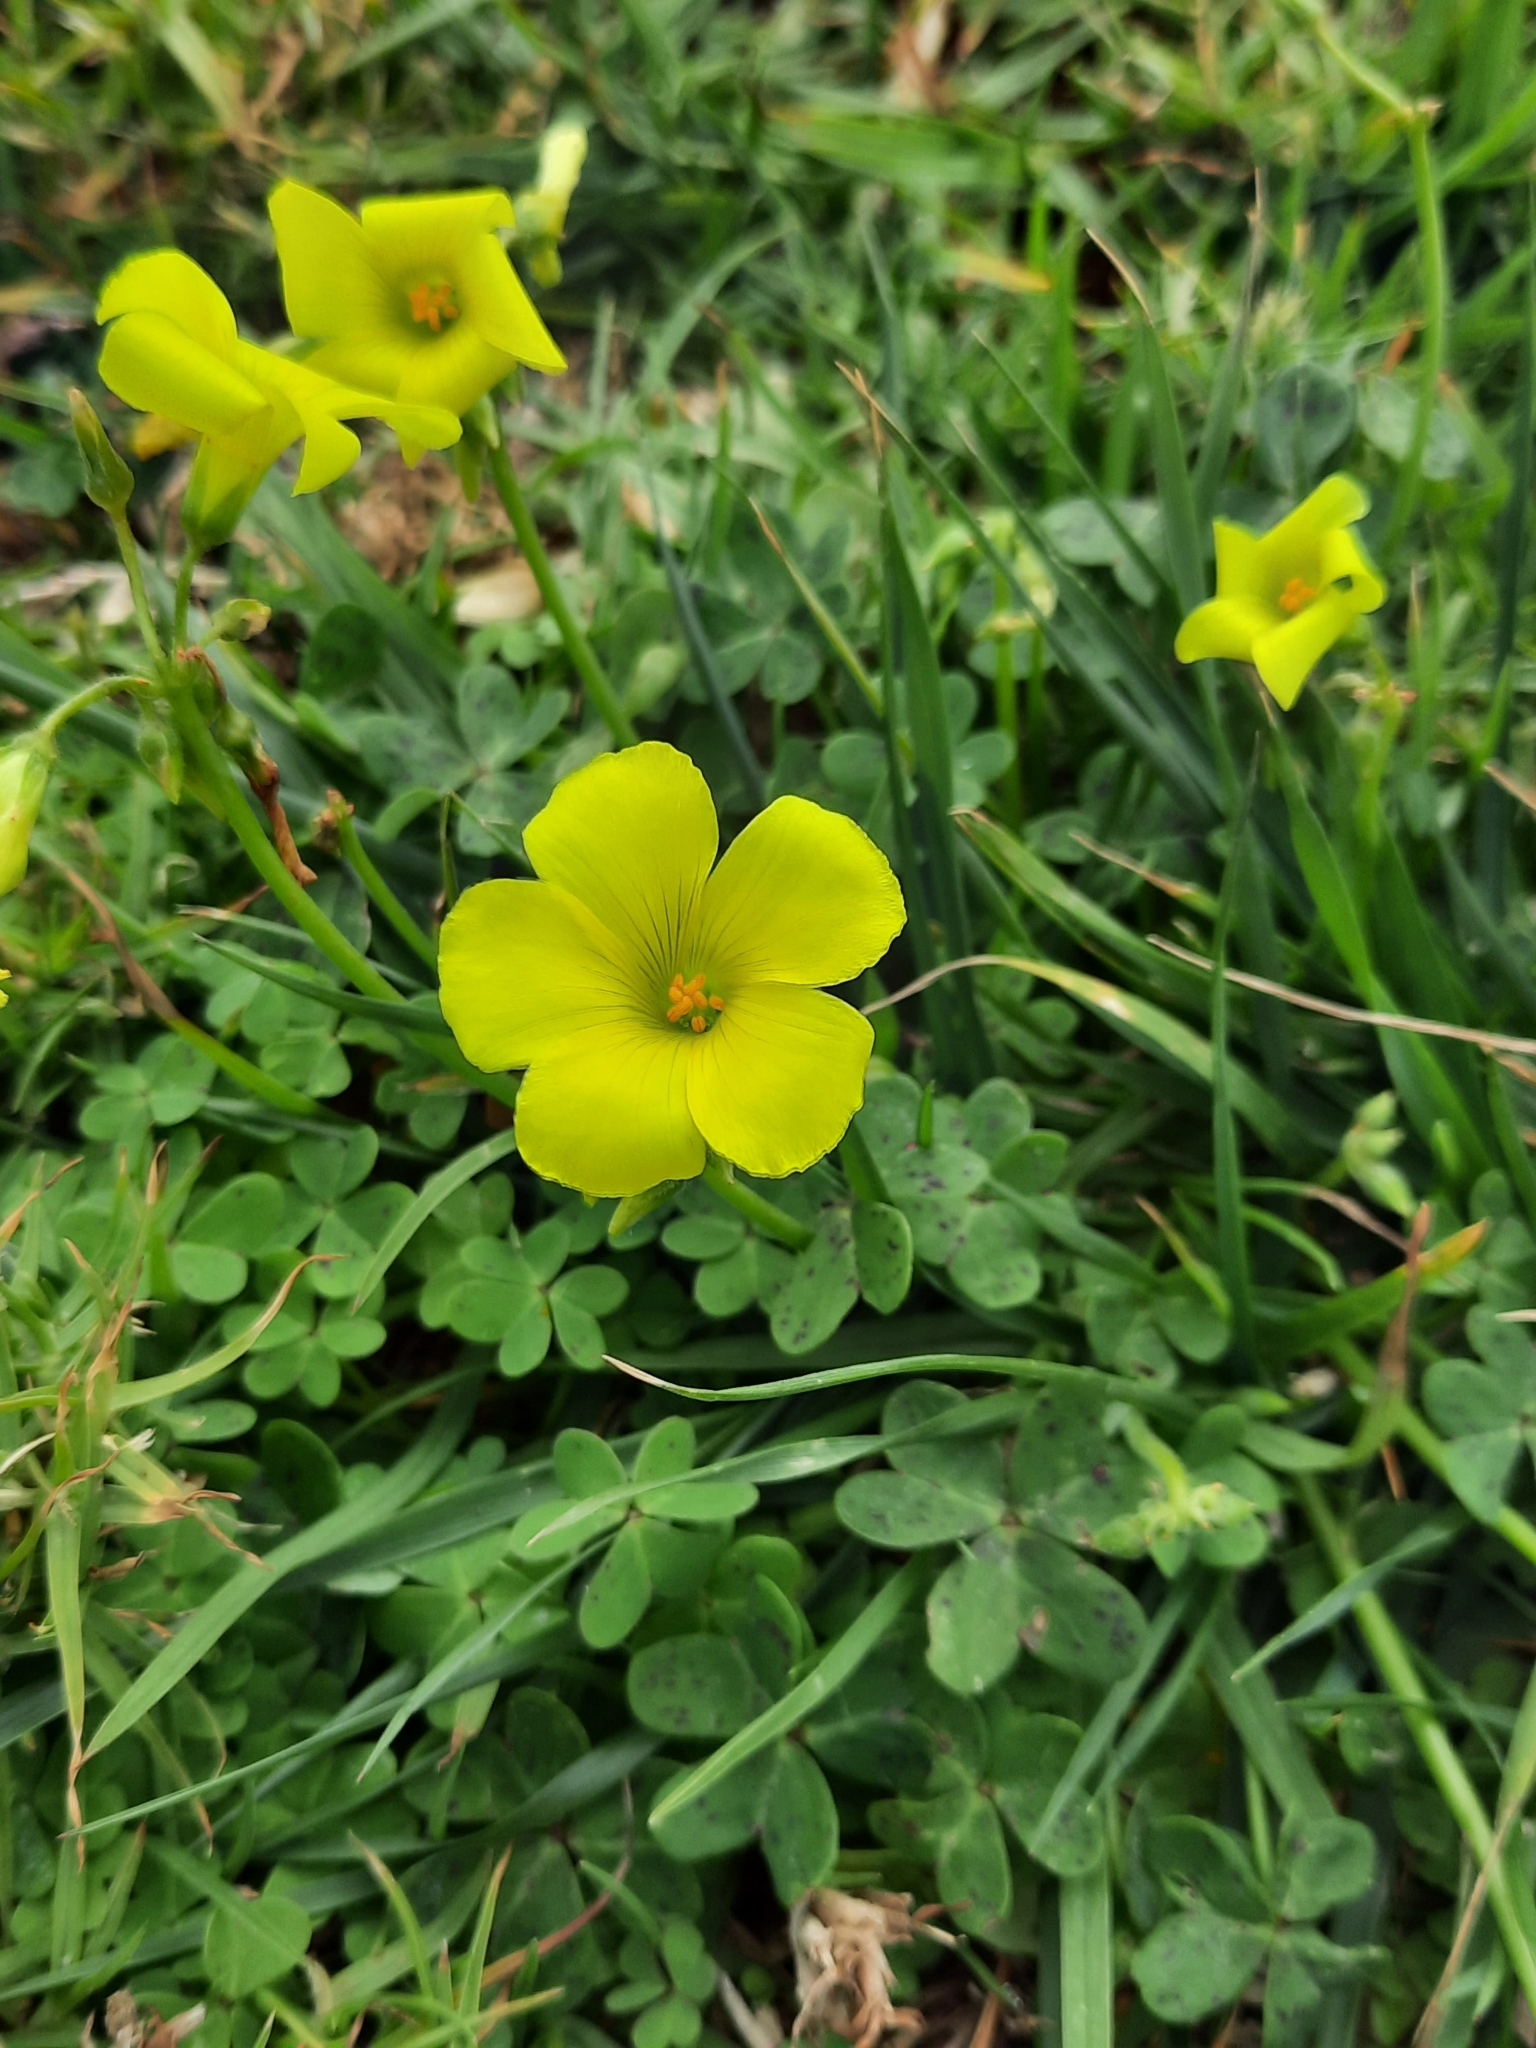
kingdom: Plantae
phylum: Tracheophyta
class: Magnoliopsida
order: Oxalidales
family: Oxalidaceae
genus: Oxalis
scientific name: Oxalis pes-caprae
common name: Bermuda-buttercup
